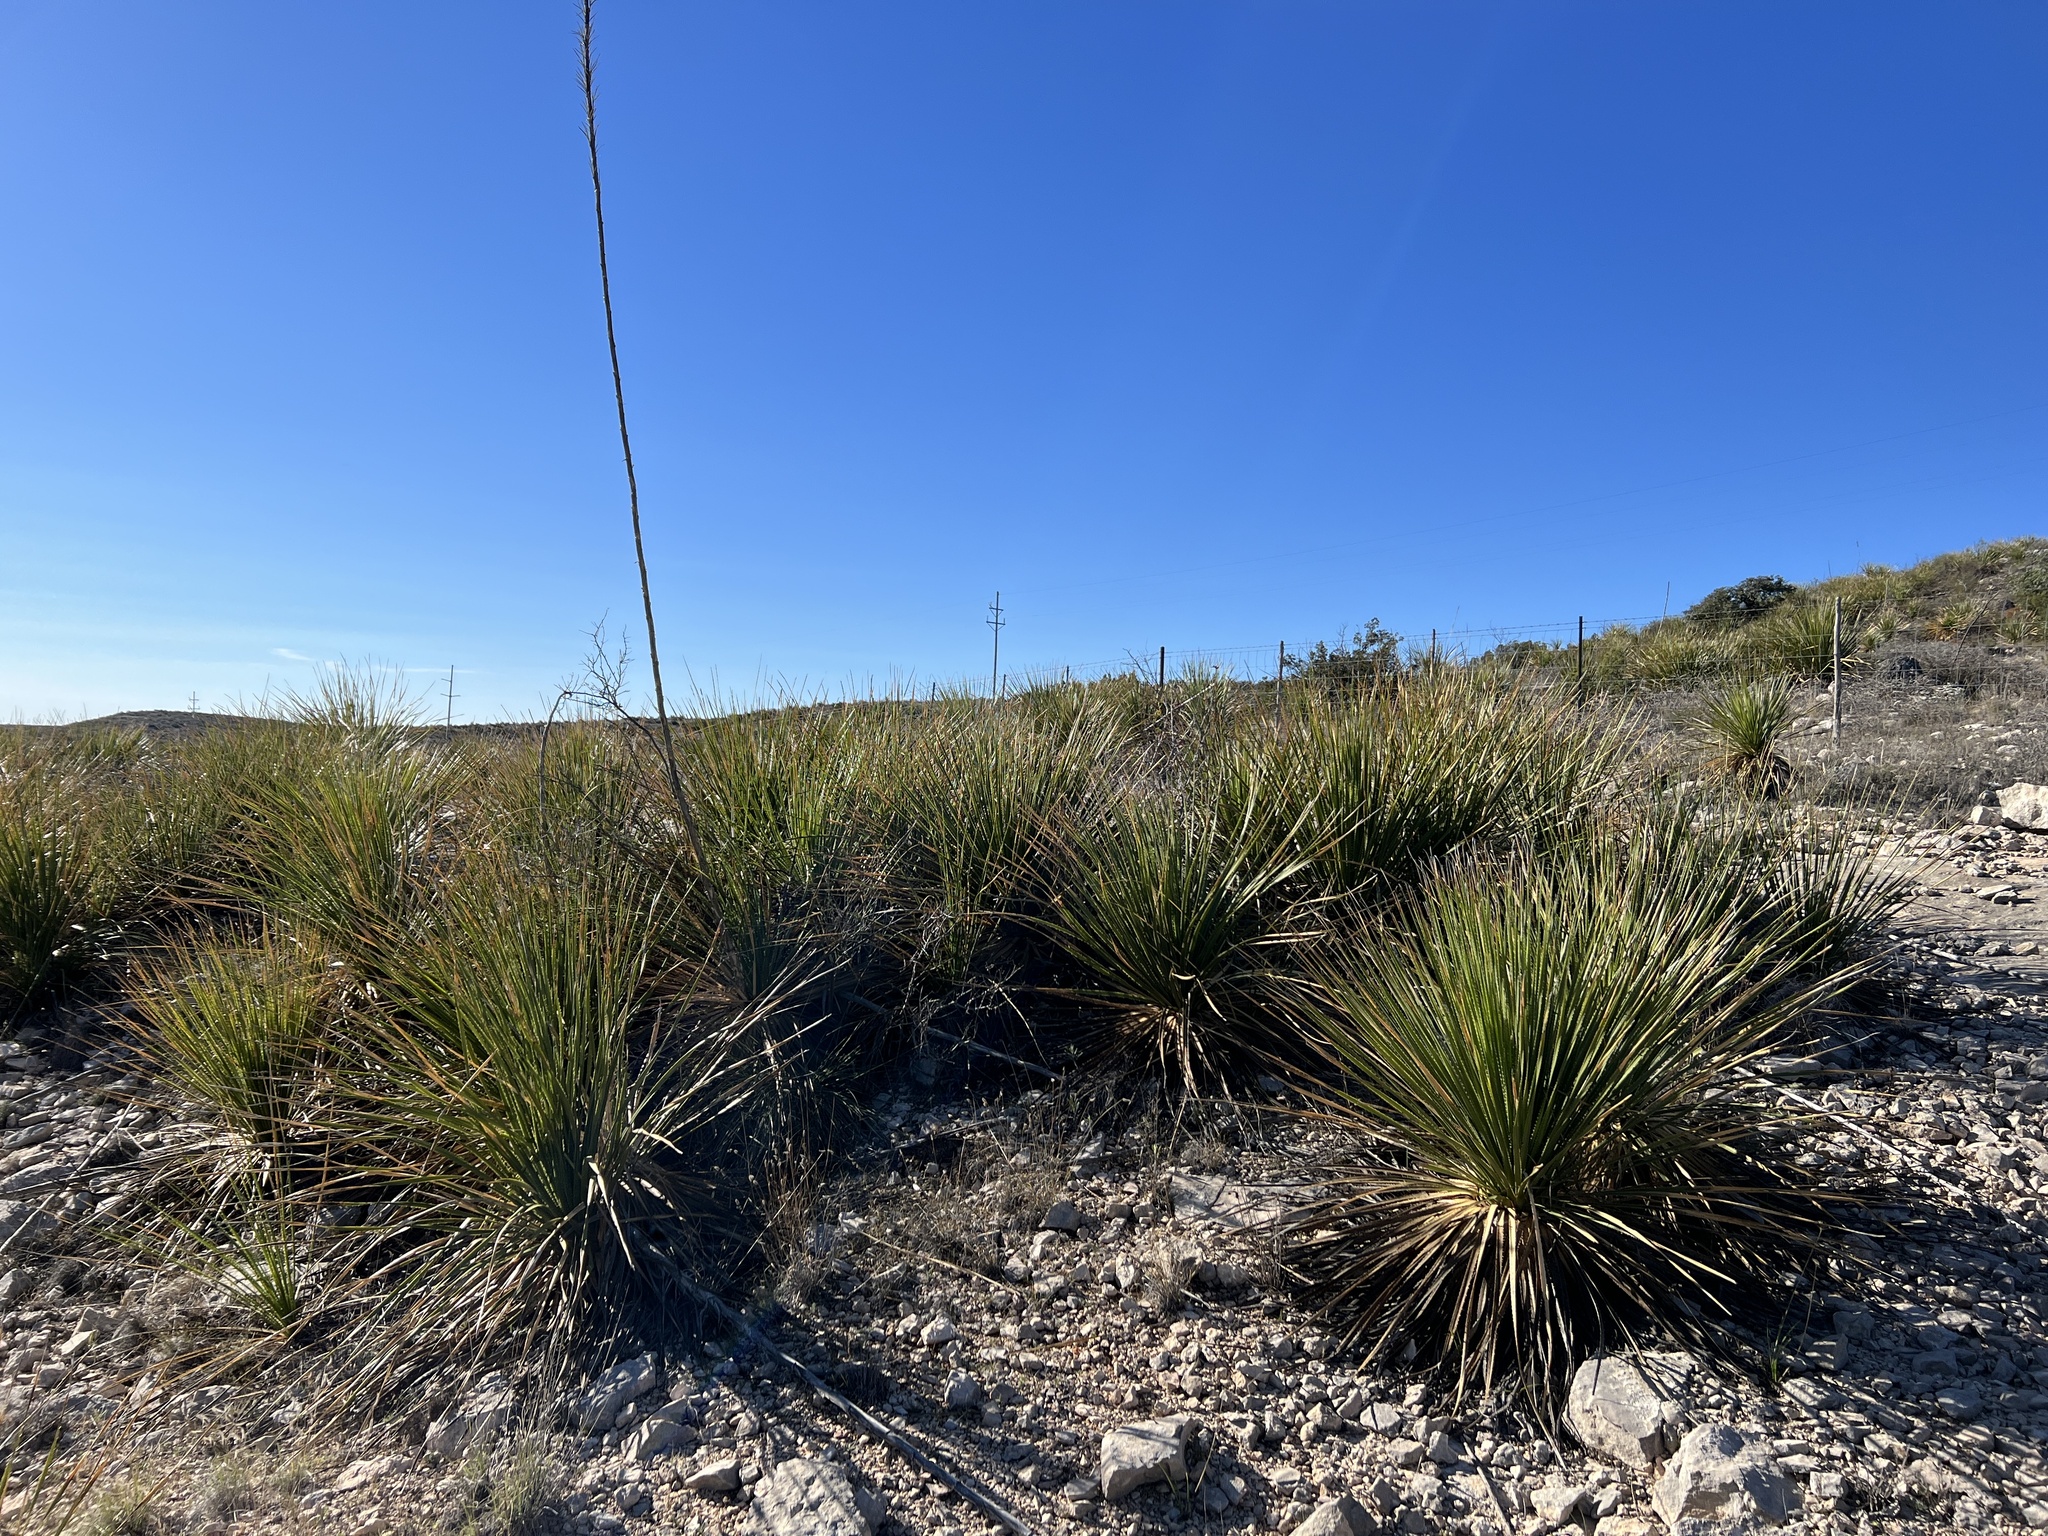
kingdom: Plantae
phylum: Tracheophyta
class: Liliopsida
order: Asparagales
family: Asparagaceae
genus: Dasylirion
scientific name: Dasylirion texanum
